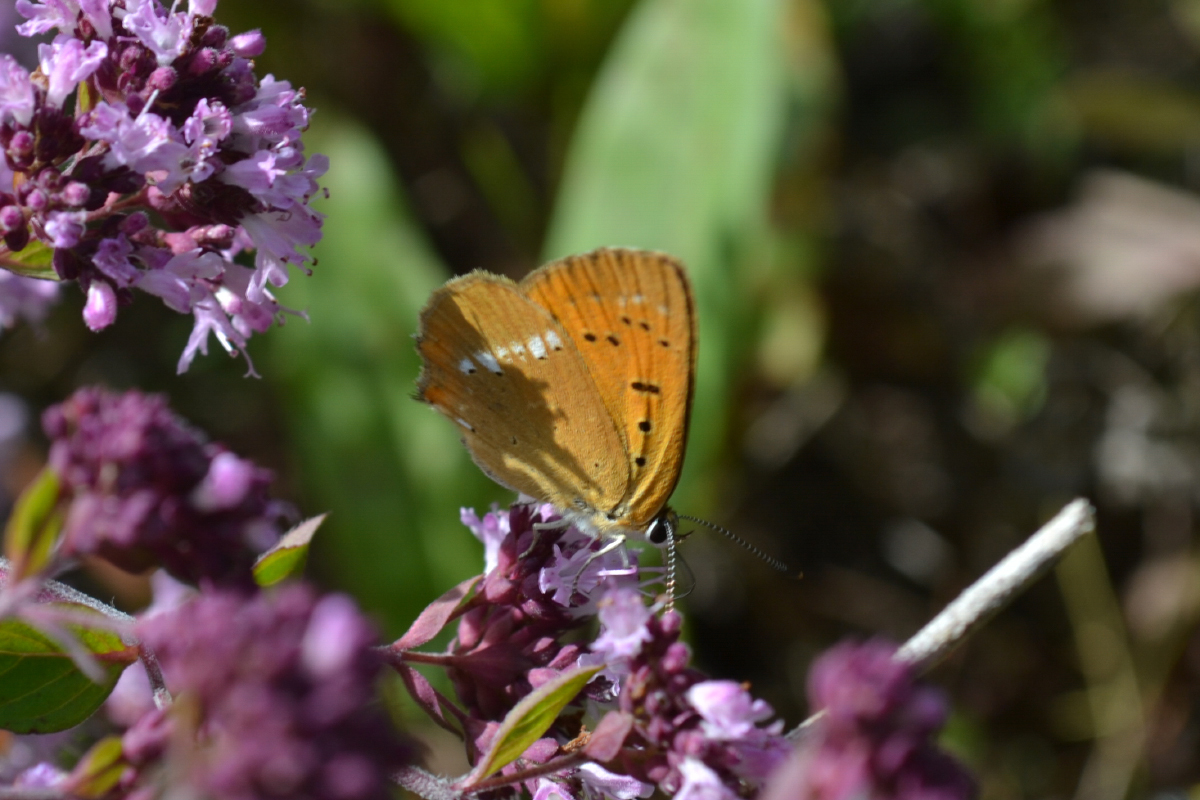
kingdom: Animalia
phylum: Arthropoda
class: Insecta
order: Lepidoptera
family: Lycaenidae
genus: Lycaena
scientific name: Lycaena virgaureae
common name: Scarce copper
